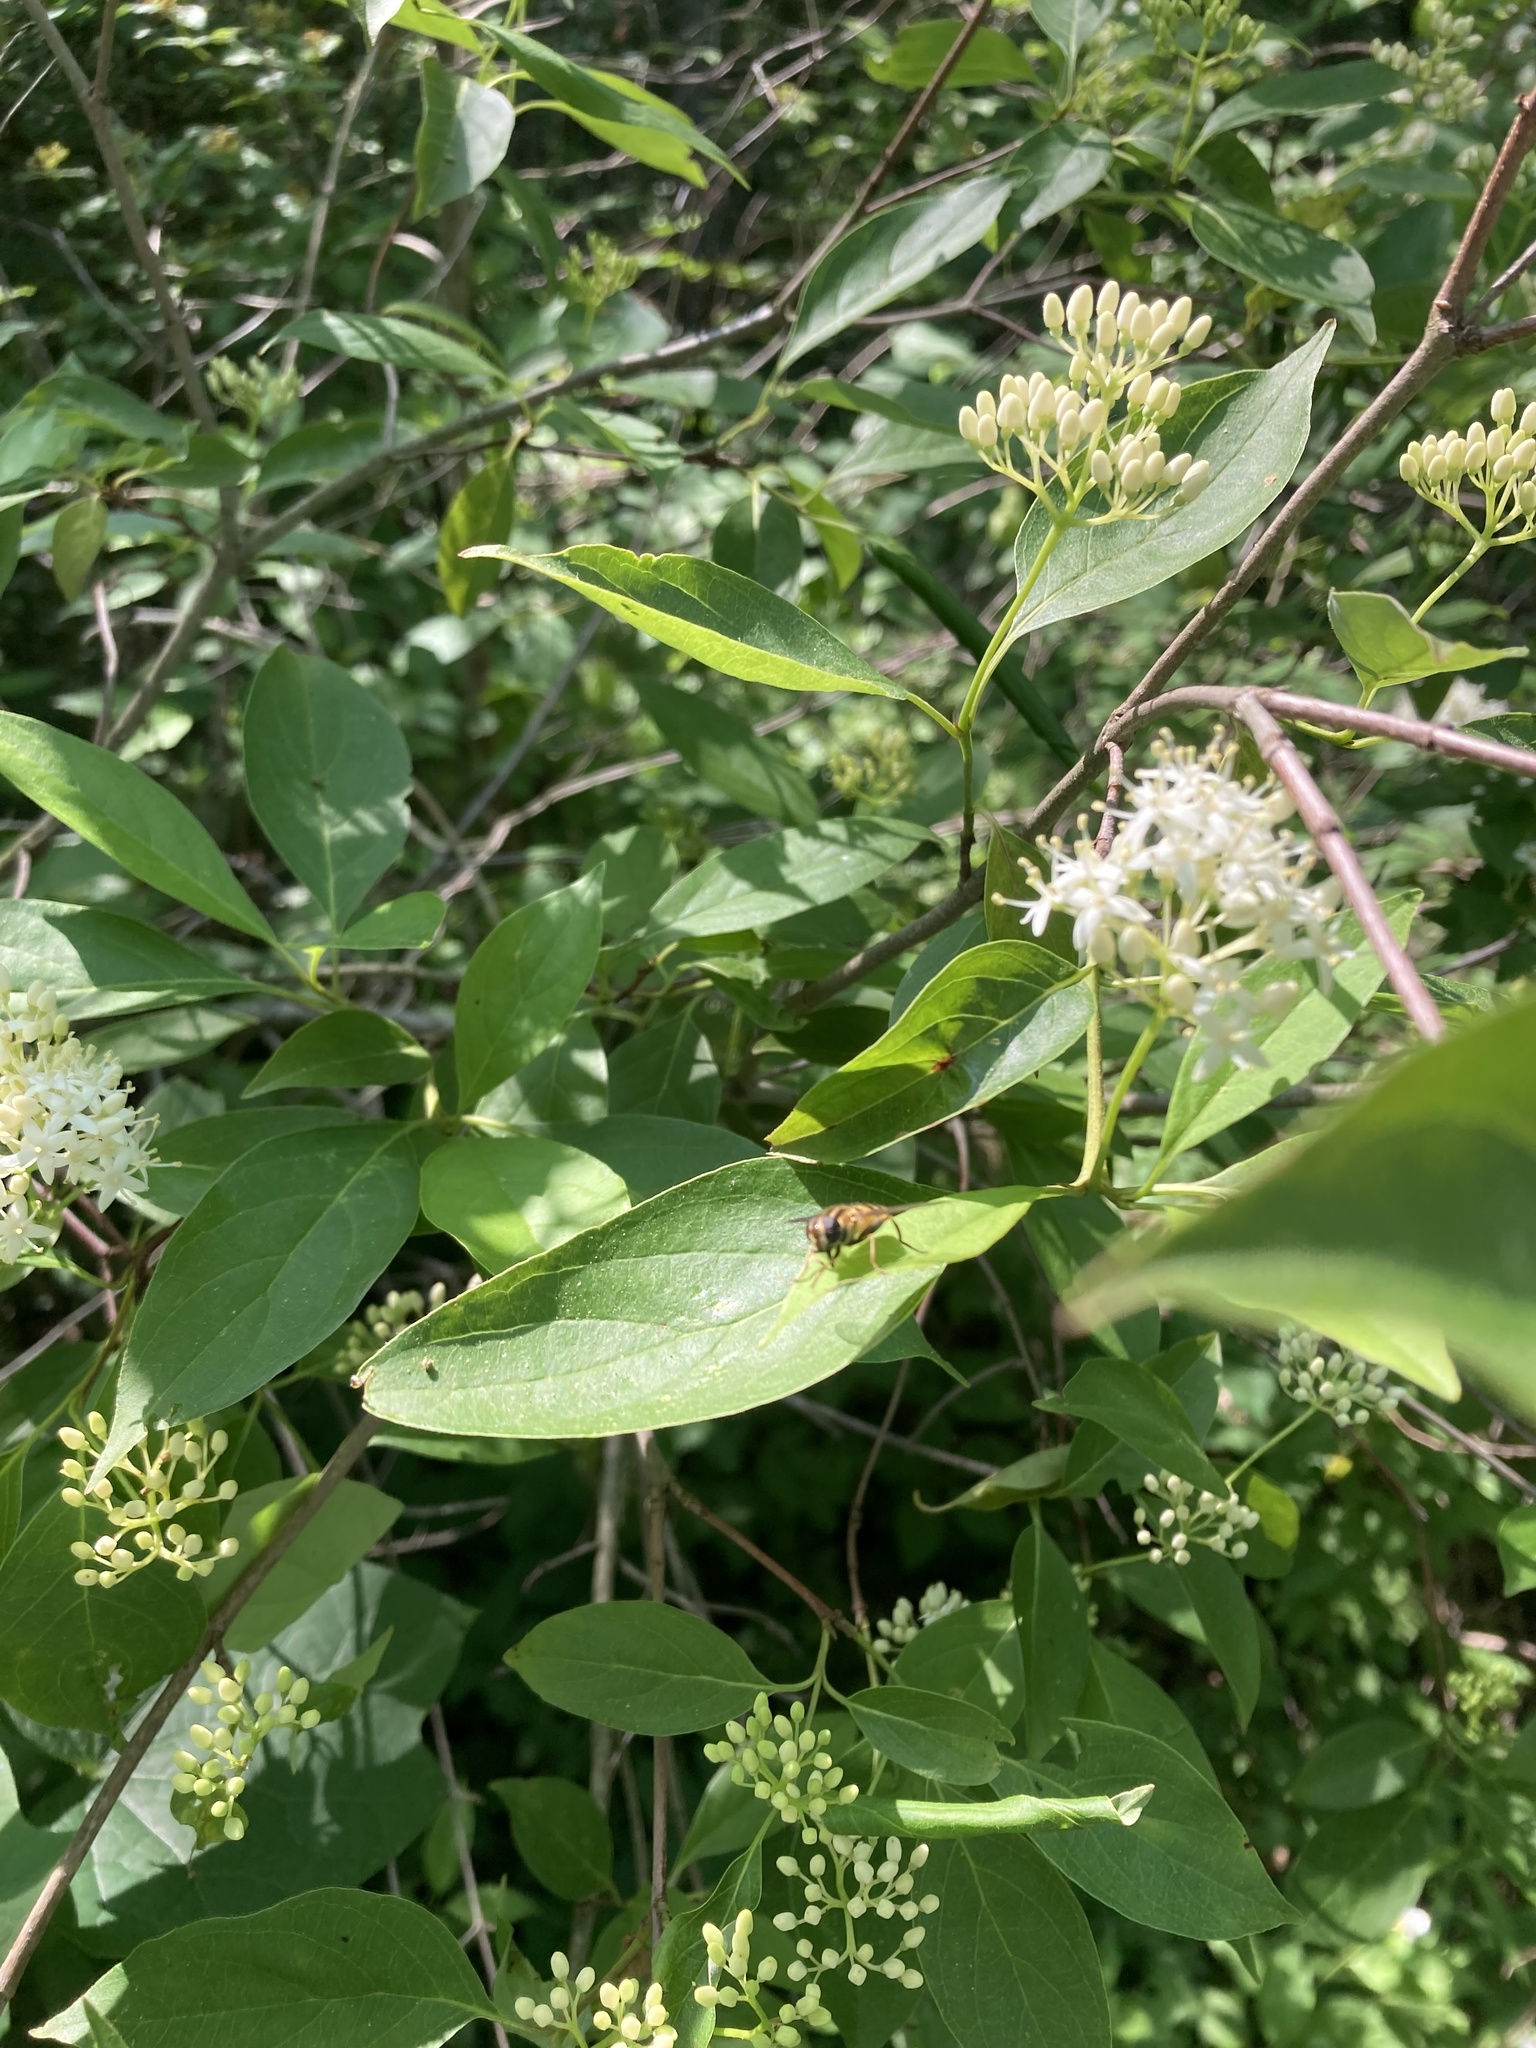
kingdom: Animalia
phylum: Arthropoda
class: Insecta
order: Diptera
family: Syrphidae
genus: Helophilus
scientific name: Helophilus fasciatus
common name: Narrow-headed marsh fly
